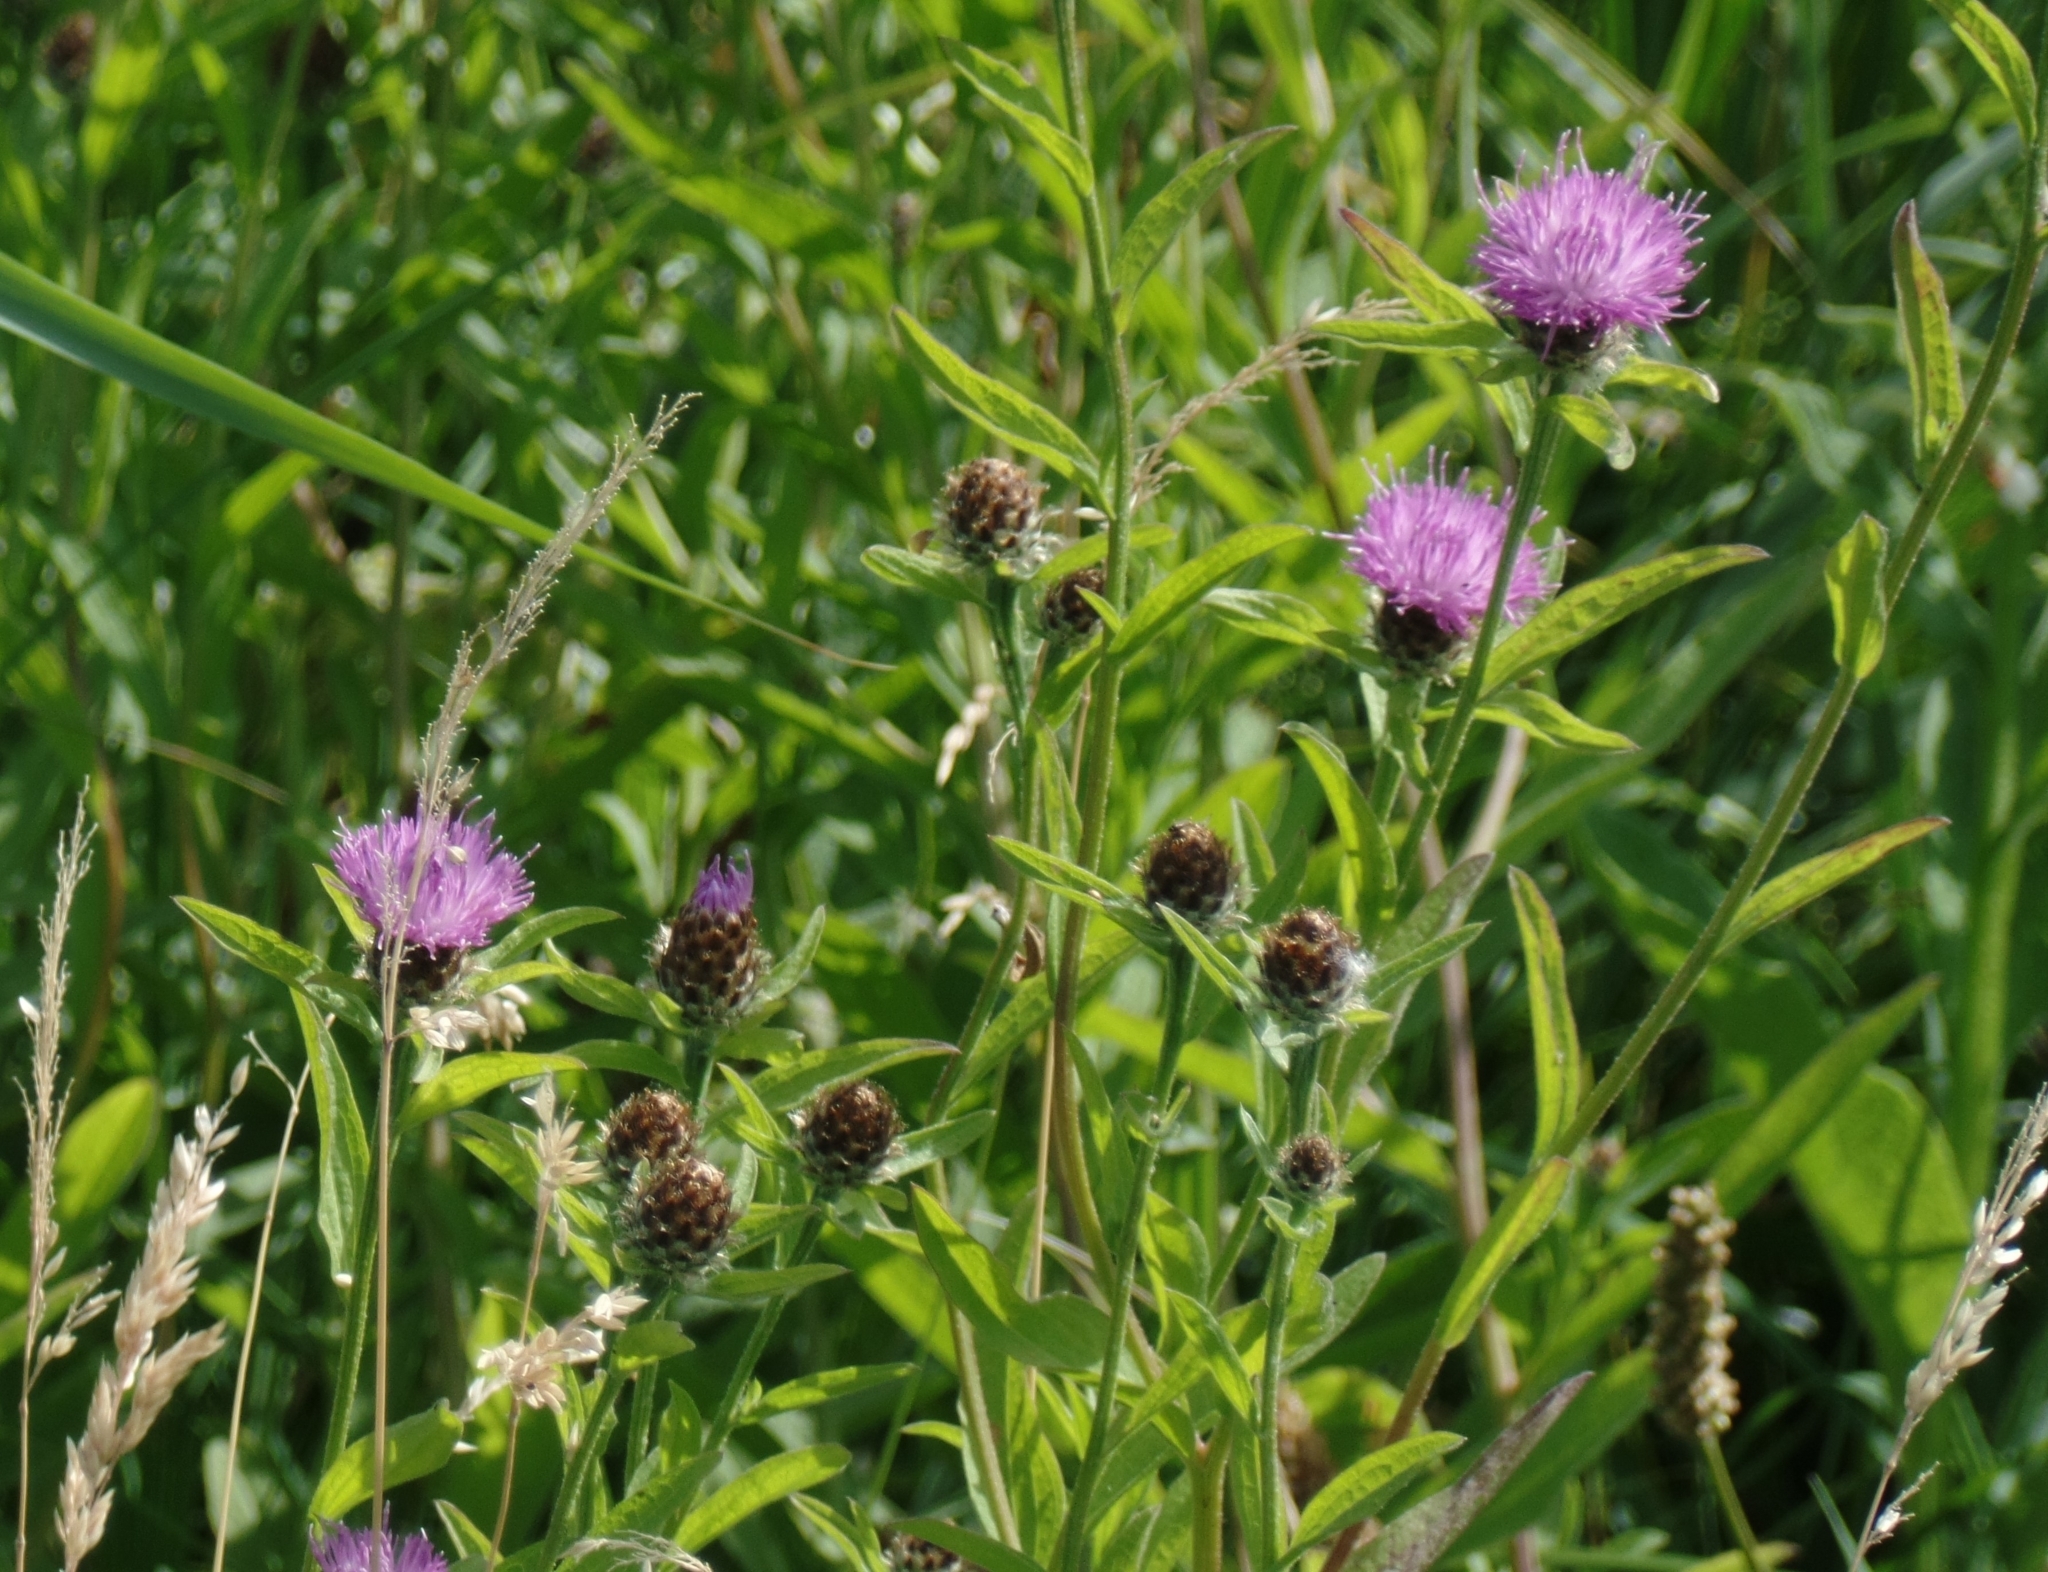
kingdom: Plantae
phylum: Tracheophyta
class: Magnoliopsida
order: Asterales
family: Asteraceae
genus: Centaurea
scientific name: Centaurea nigra
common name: Lesser knapweed
